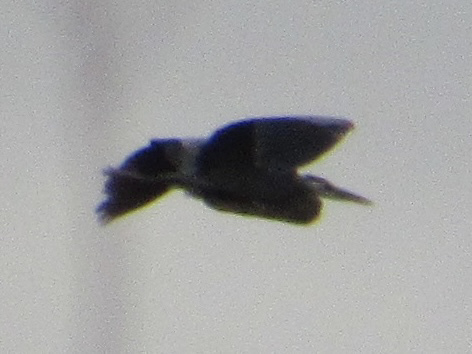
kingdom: Animalia
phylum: Chordata
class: Aves
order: Pelecaniformes
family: Ardeidae
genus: Ardea
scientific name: Ardea herodias
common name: Great blue heron
